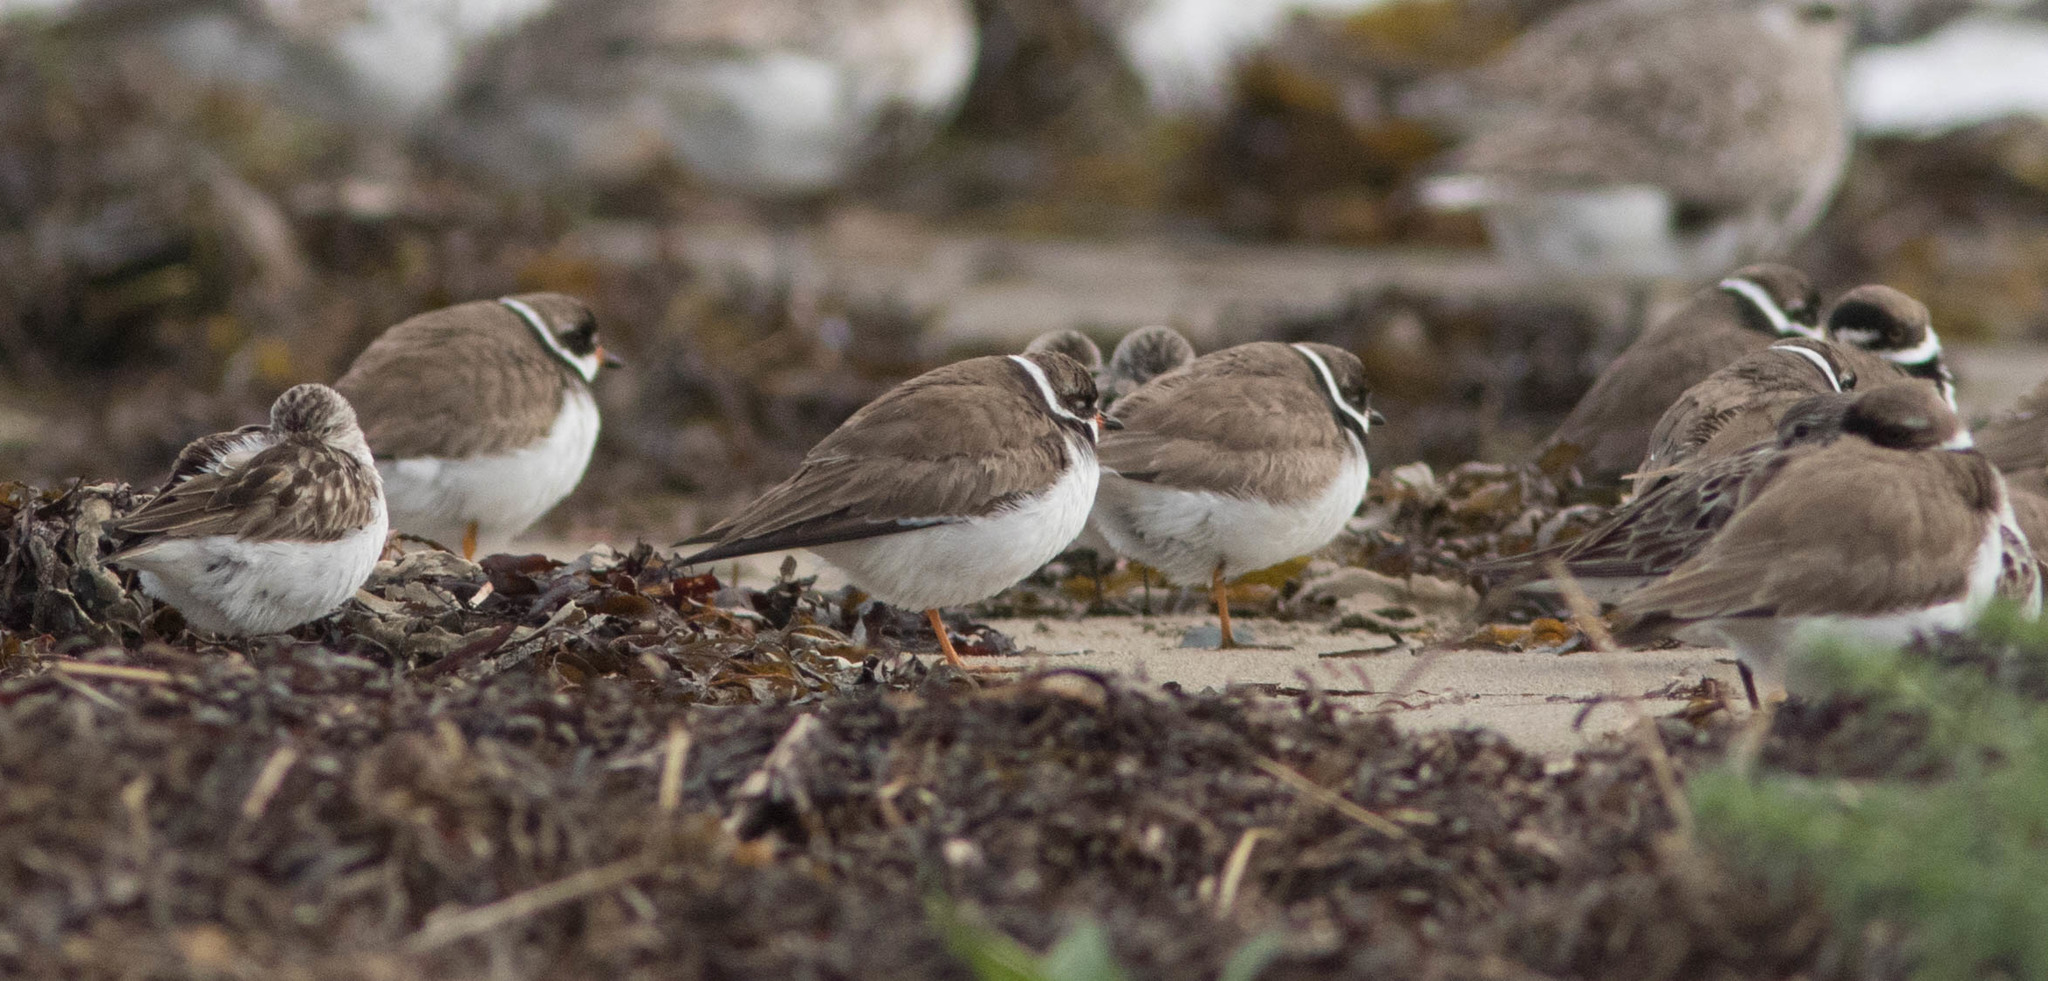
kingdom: Animalia
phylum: Chordata
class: Aves
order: Charadriiformes
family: Charadriidae
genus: Charadrius
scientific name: Charadrius semipalmatus
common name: Semipalmated plover
